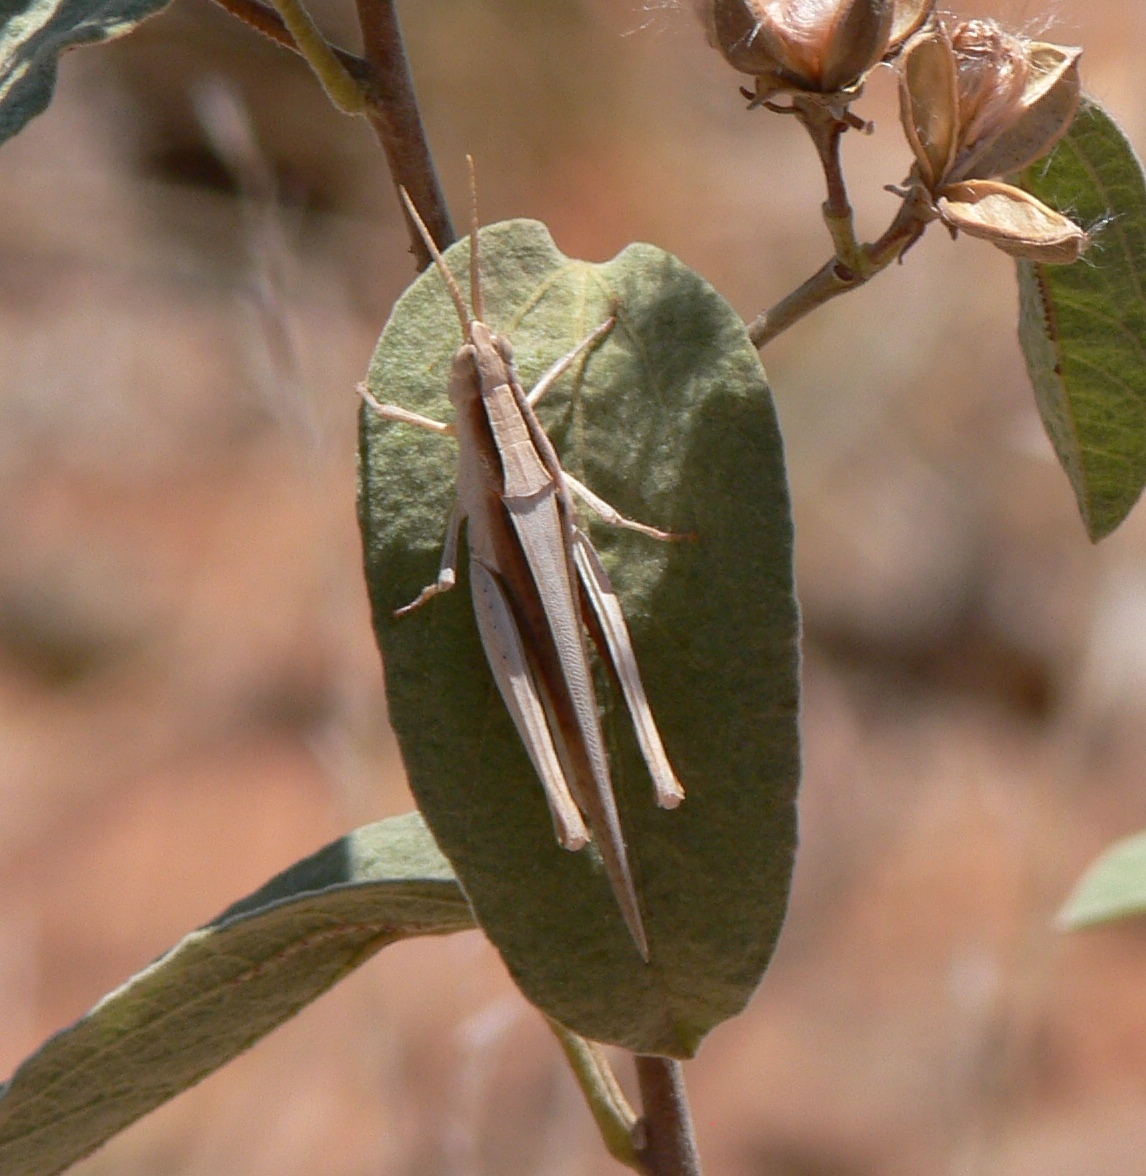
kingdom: Animalia
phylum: Arthropoda
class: Insecta
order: Orthoptera
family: Acrididae
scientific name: Acrididae
